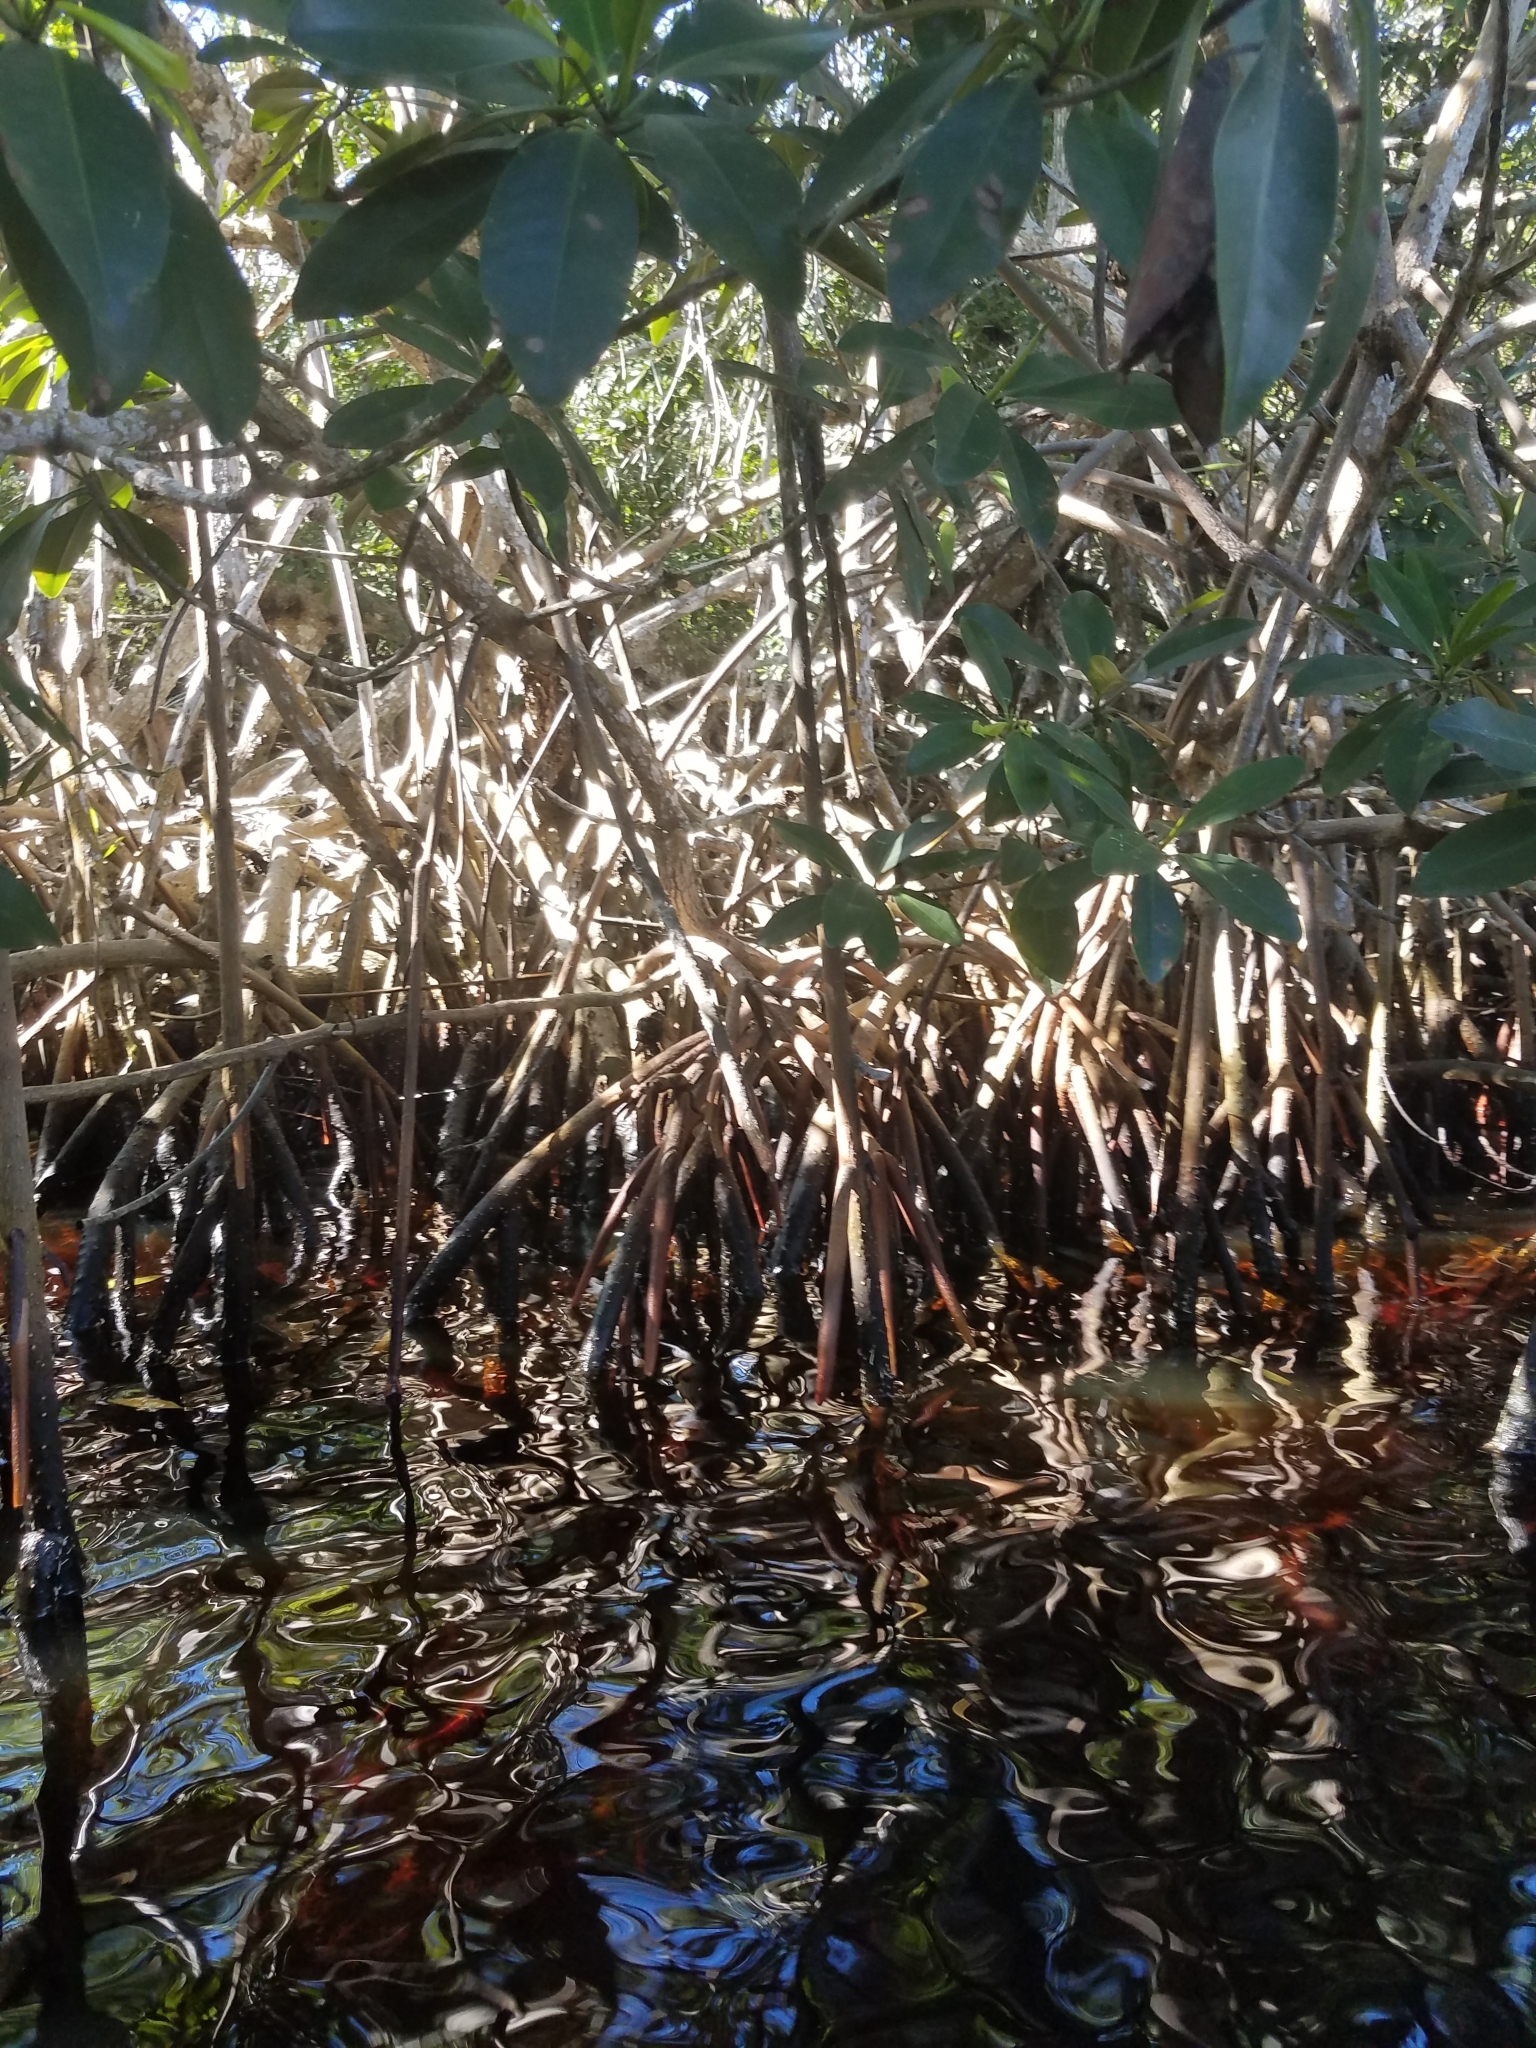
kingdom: Plantae
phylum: Tracheophyta
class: Magnoliopsida
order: Malpighiales
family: Rhizophoraceae
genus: Rhizophora
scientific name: Rhizophora mangle
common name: Red mangrove
